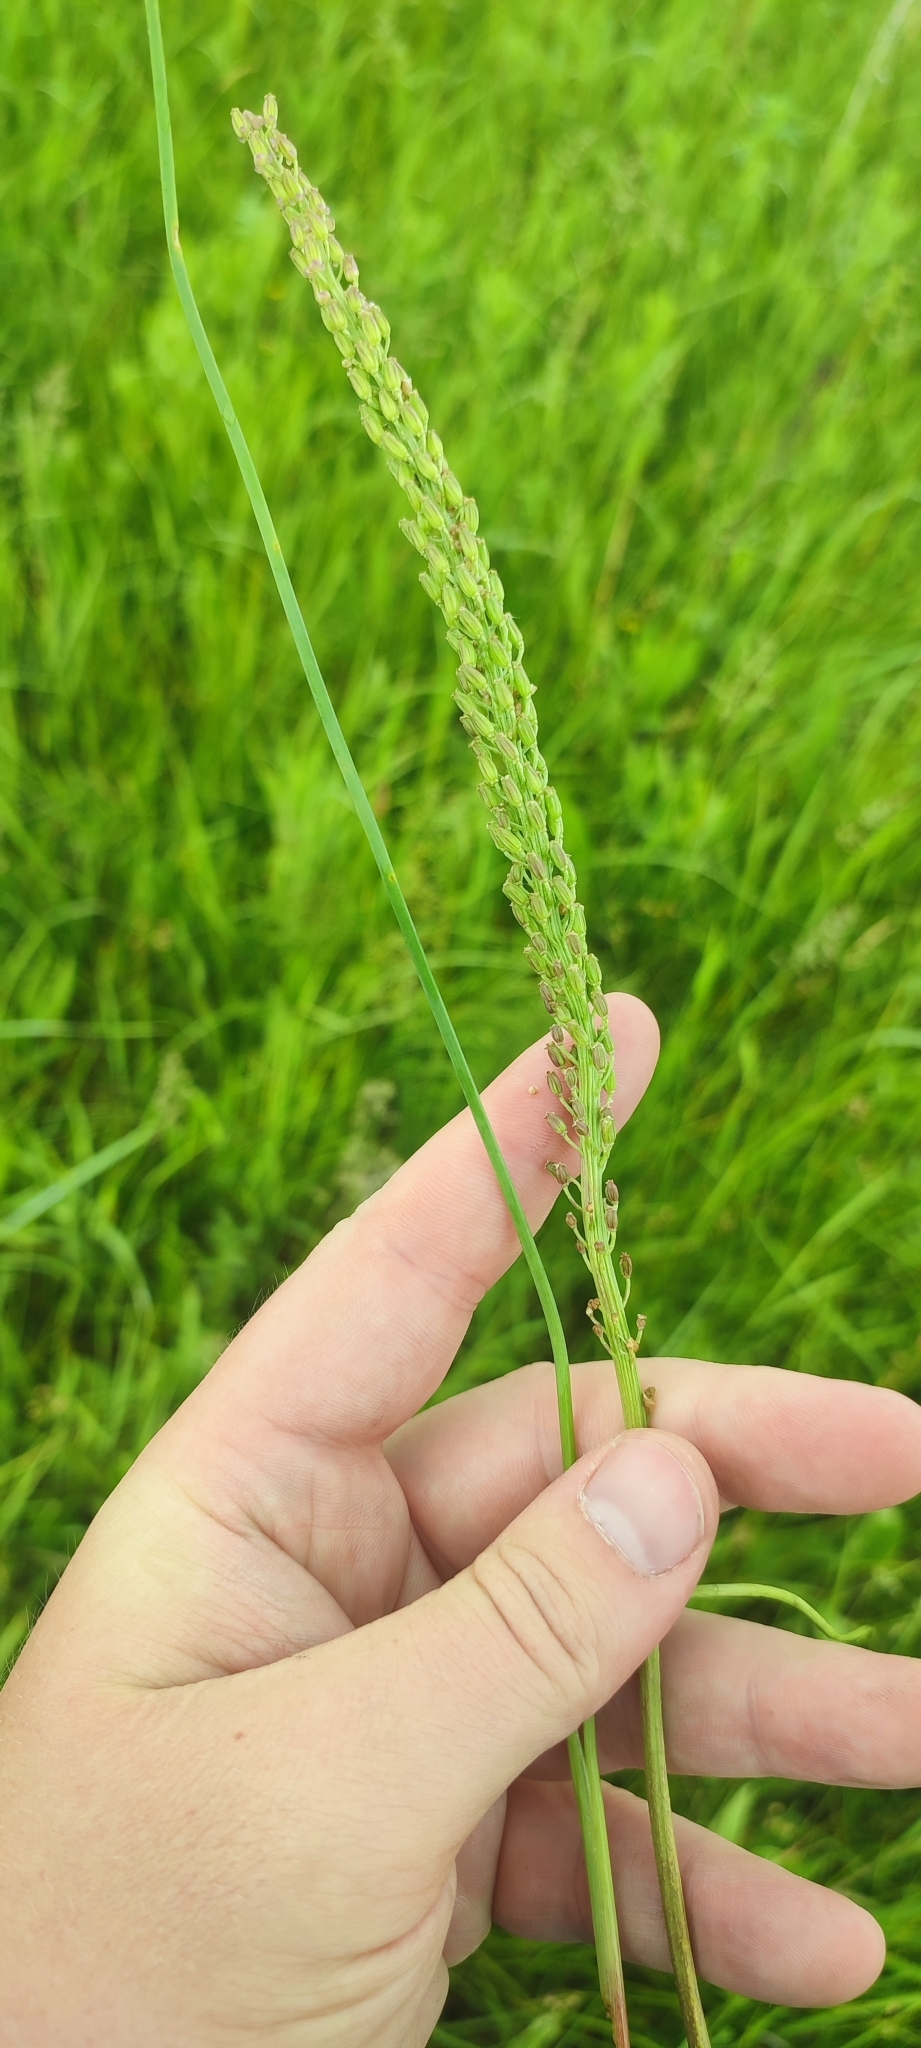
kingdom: Plantae
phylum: Tracheophyta
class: Liliopsida
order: Alismatales
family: Juncaginaceae
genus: Triglochin
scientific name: Triglochin maritima
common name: Sea arrowgrass
